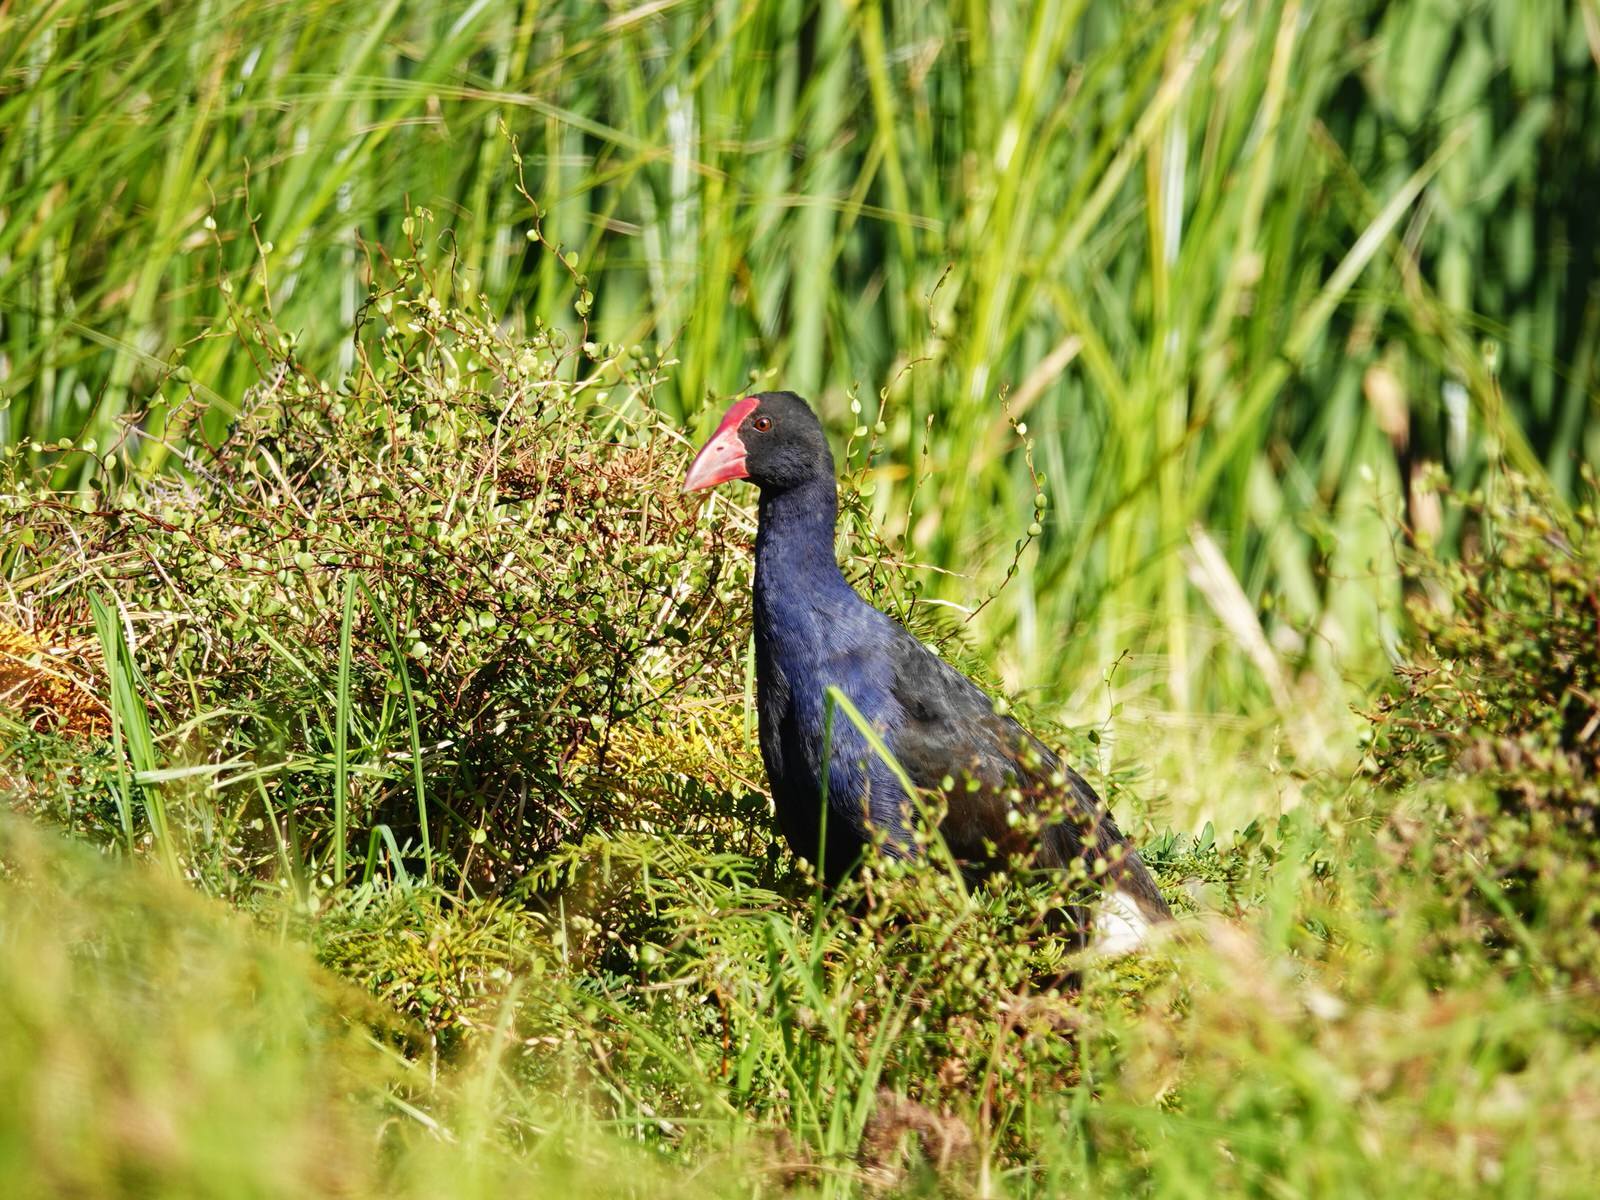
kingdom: Animalia
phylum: Chordata
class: Aves
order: Gruiformes
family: Rallidae
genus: Porphyrio
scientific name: Porphyrio melanotus
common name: Australasian swamphen
